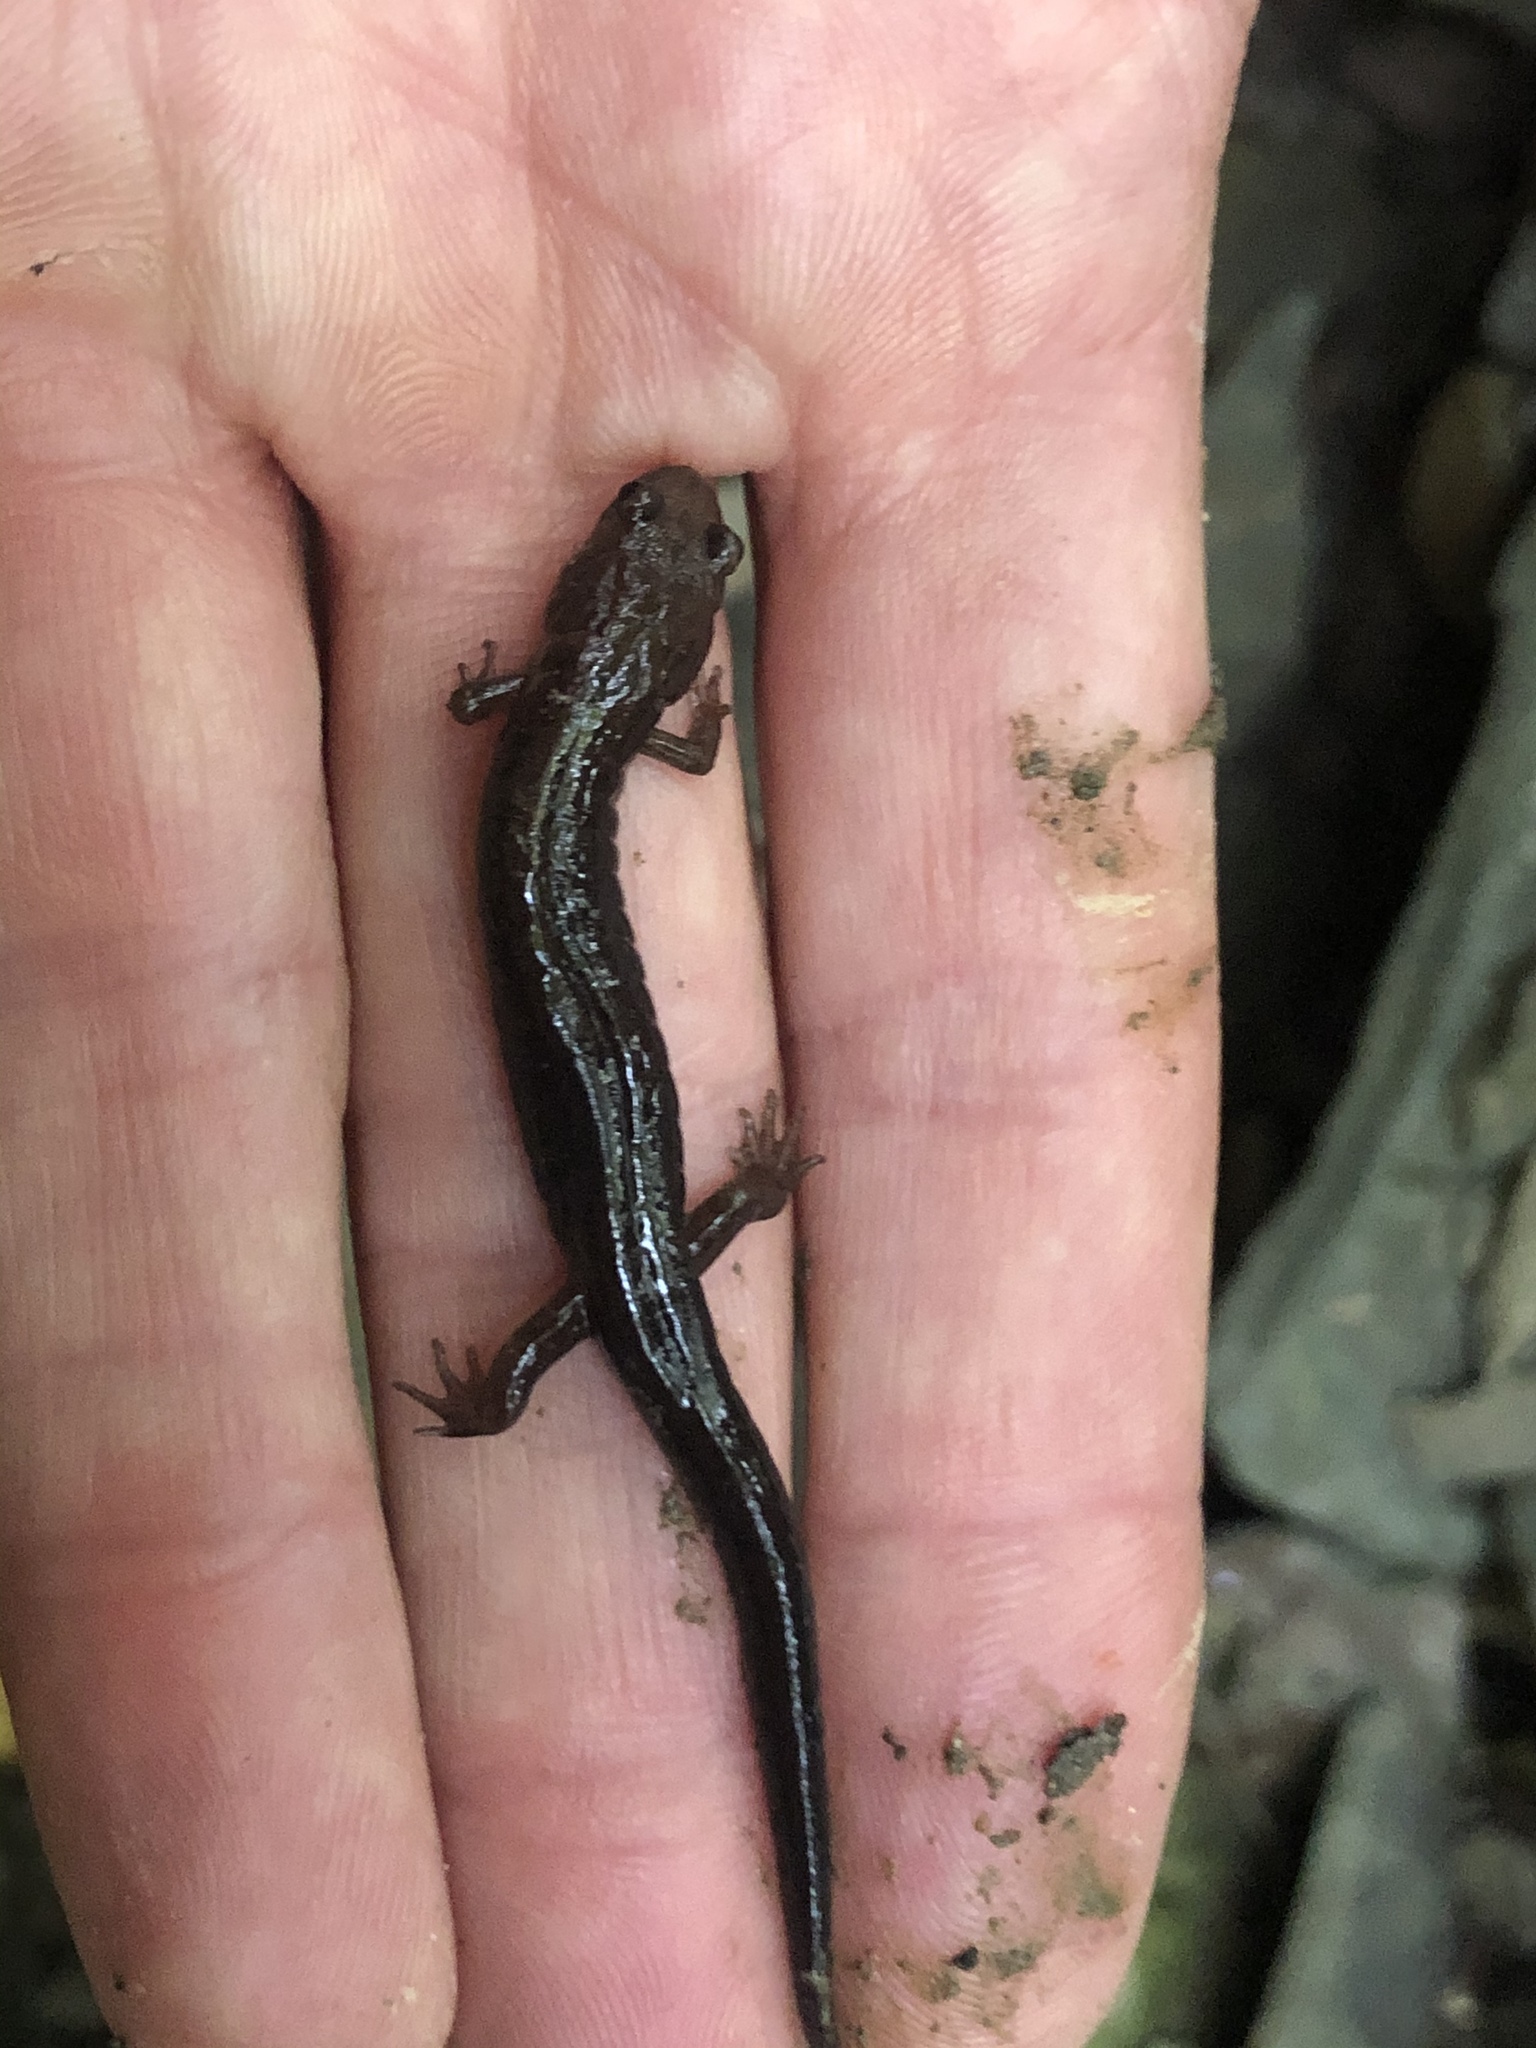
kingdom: Animalia
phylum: Chordata
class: Amphibia
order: Caudata
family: Plethodontidae
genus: Desmognathus
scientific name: Desmognathus ochrophaeus
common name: Allegheny mountain dusky salamander
